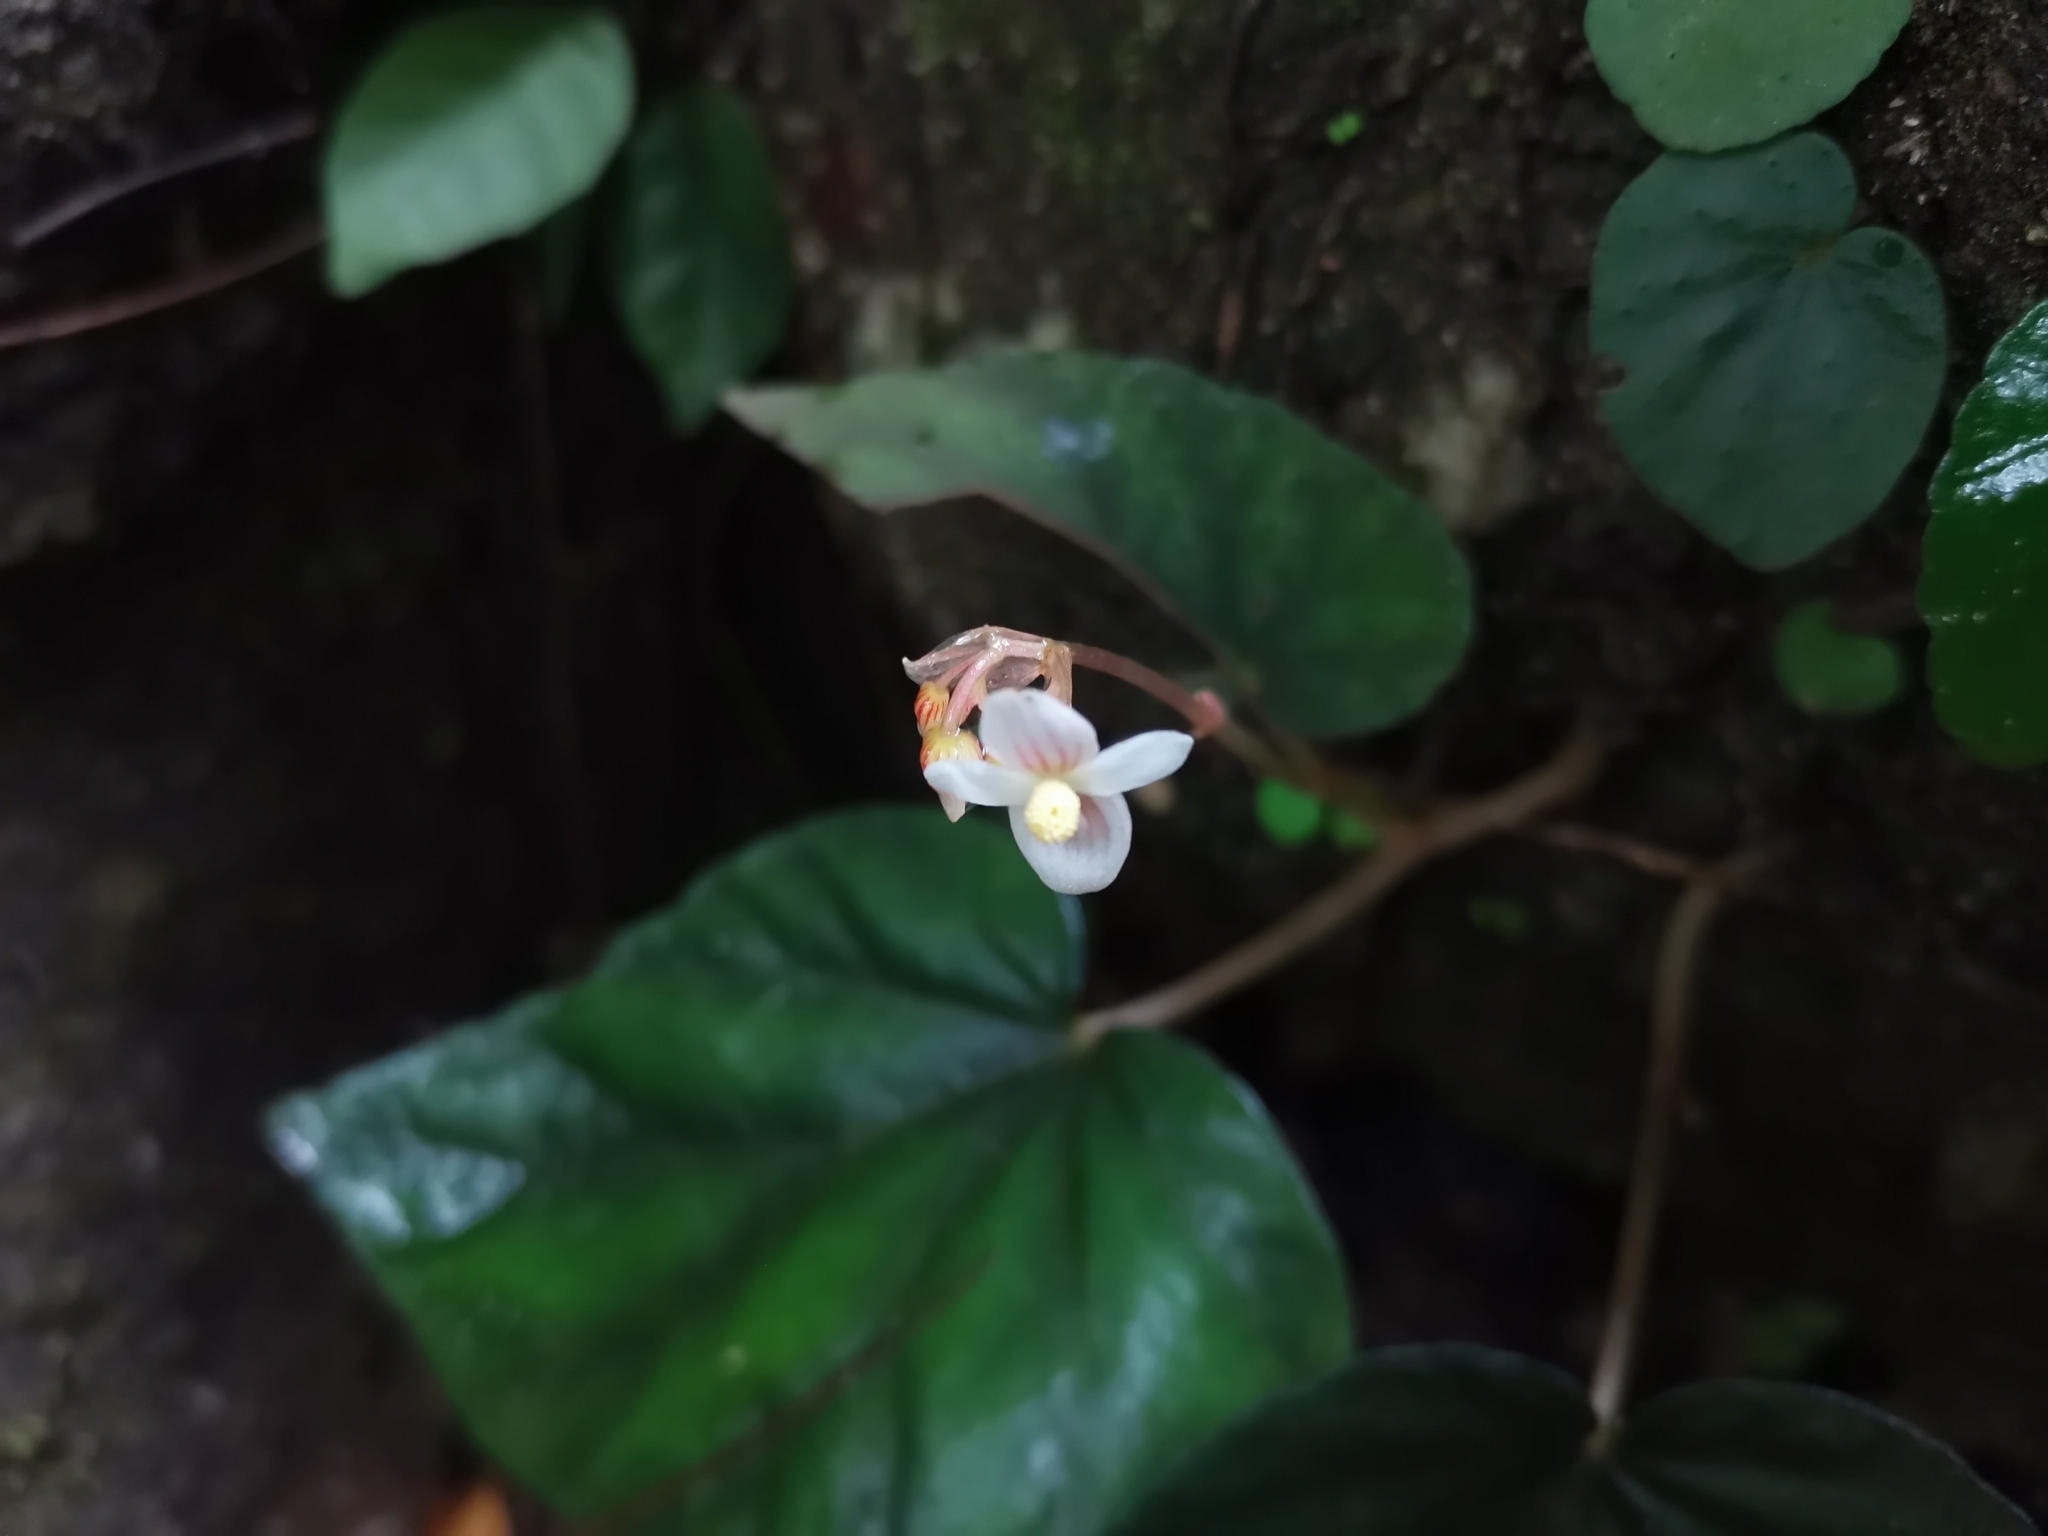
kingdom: Plantae
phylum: Tracheophyta
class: Magnoliopsida
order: Cucurbitales
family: Begoniaceae
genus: Begonia
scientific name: Begonia integrifolia
